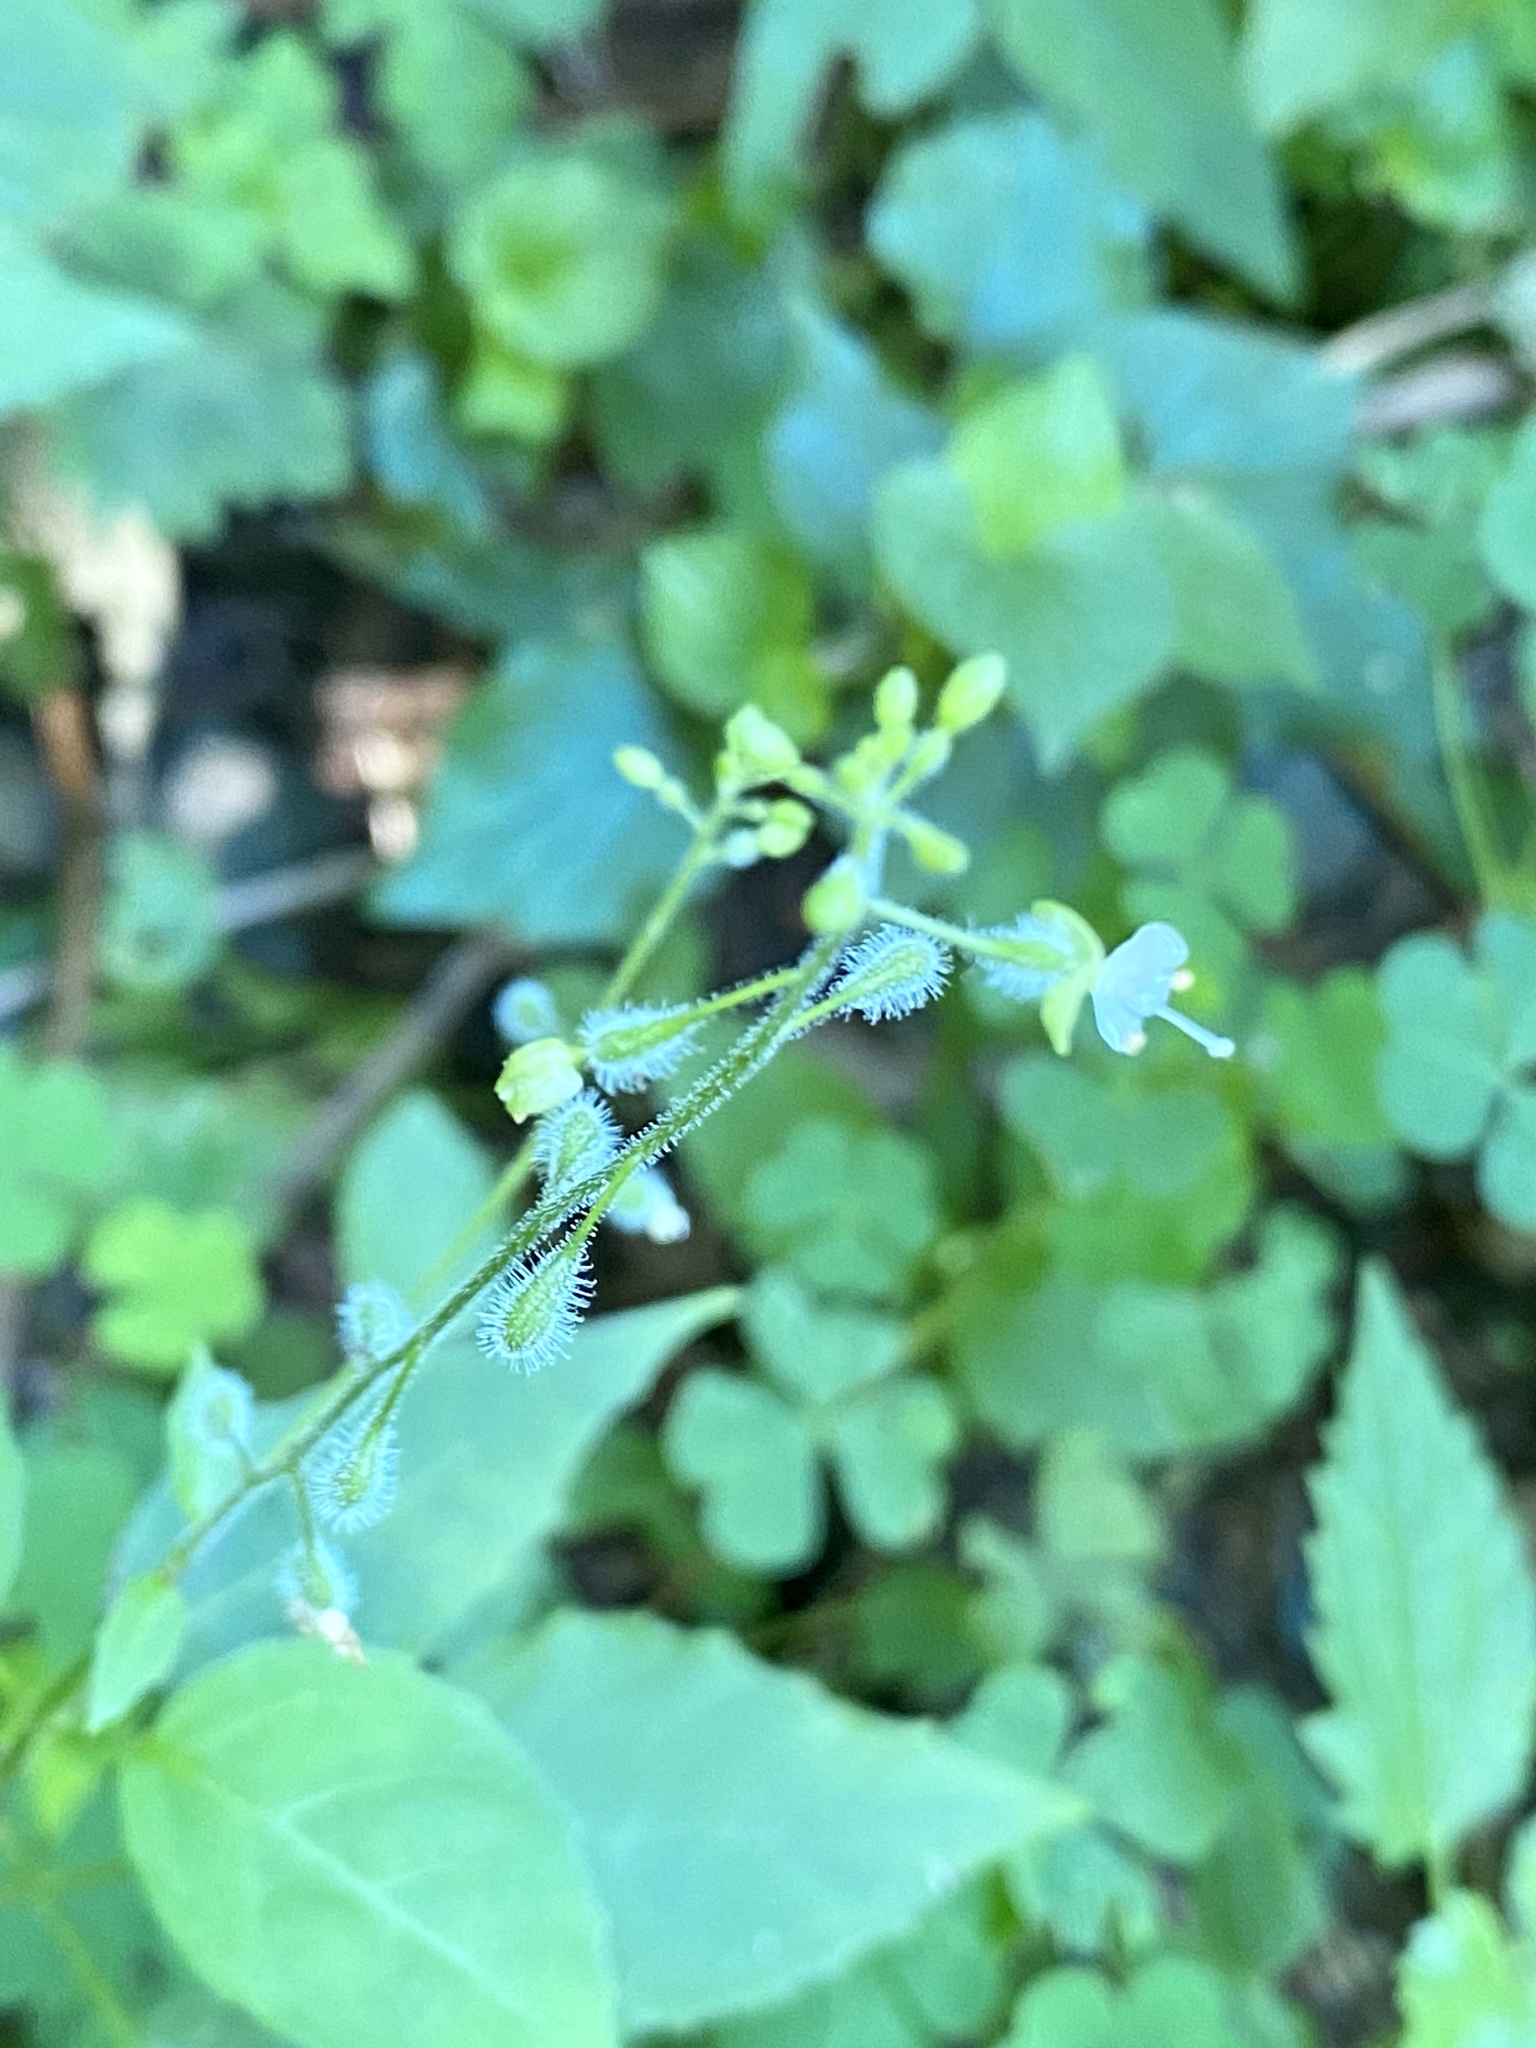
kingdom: Plantae
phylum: Tracheophyta
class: Magnoliopsida
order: Myrtales
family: Onagraceae
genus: Circaea
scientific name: Circaea canadensis
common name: Broad-leaved enchanter's nightshade
